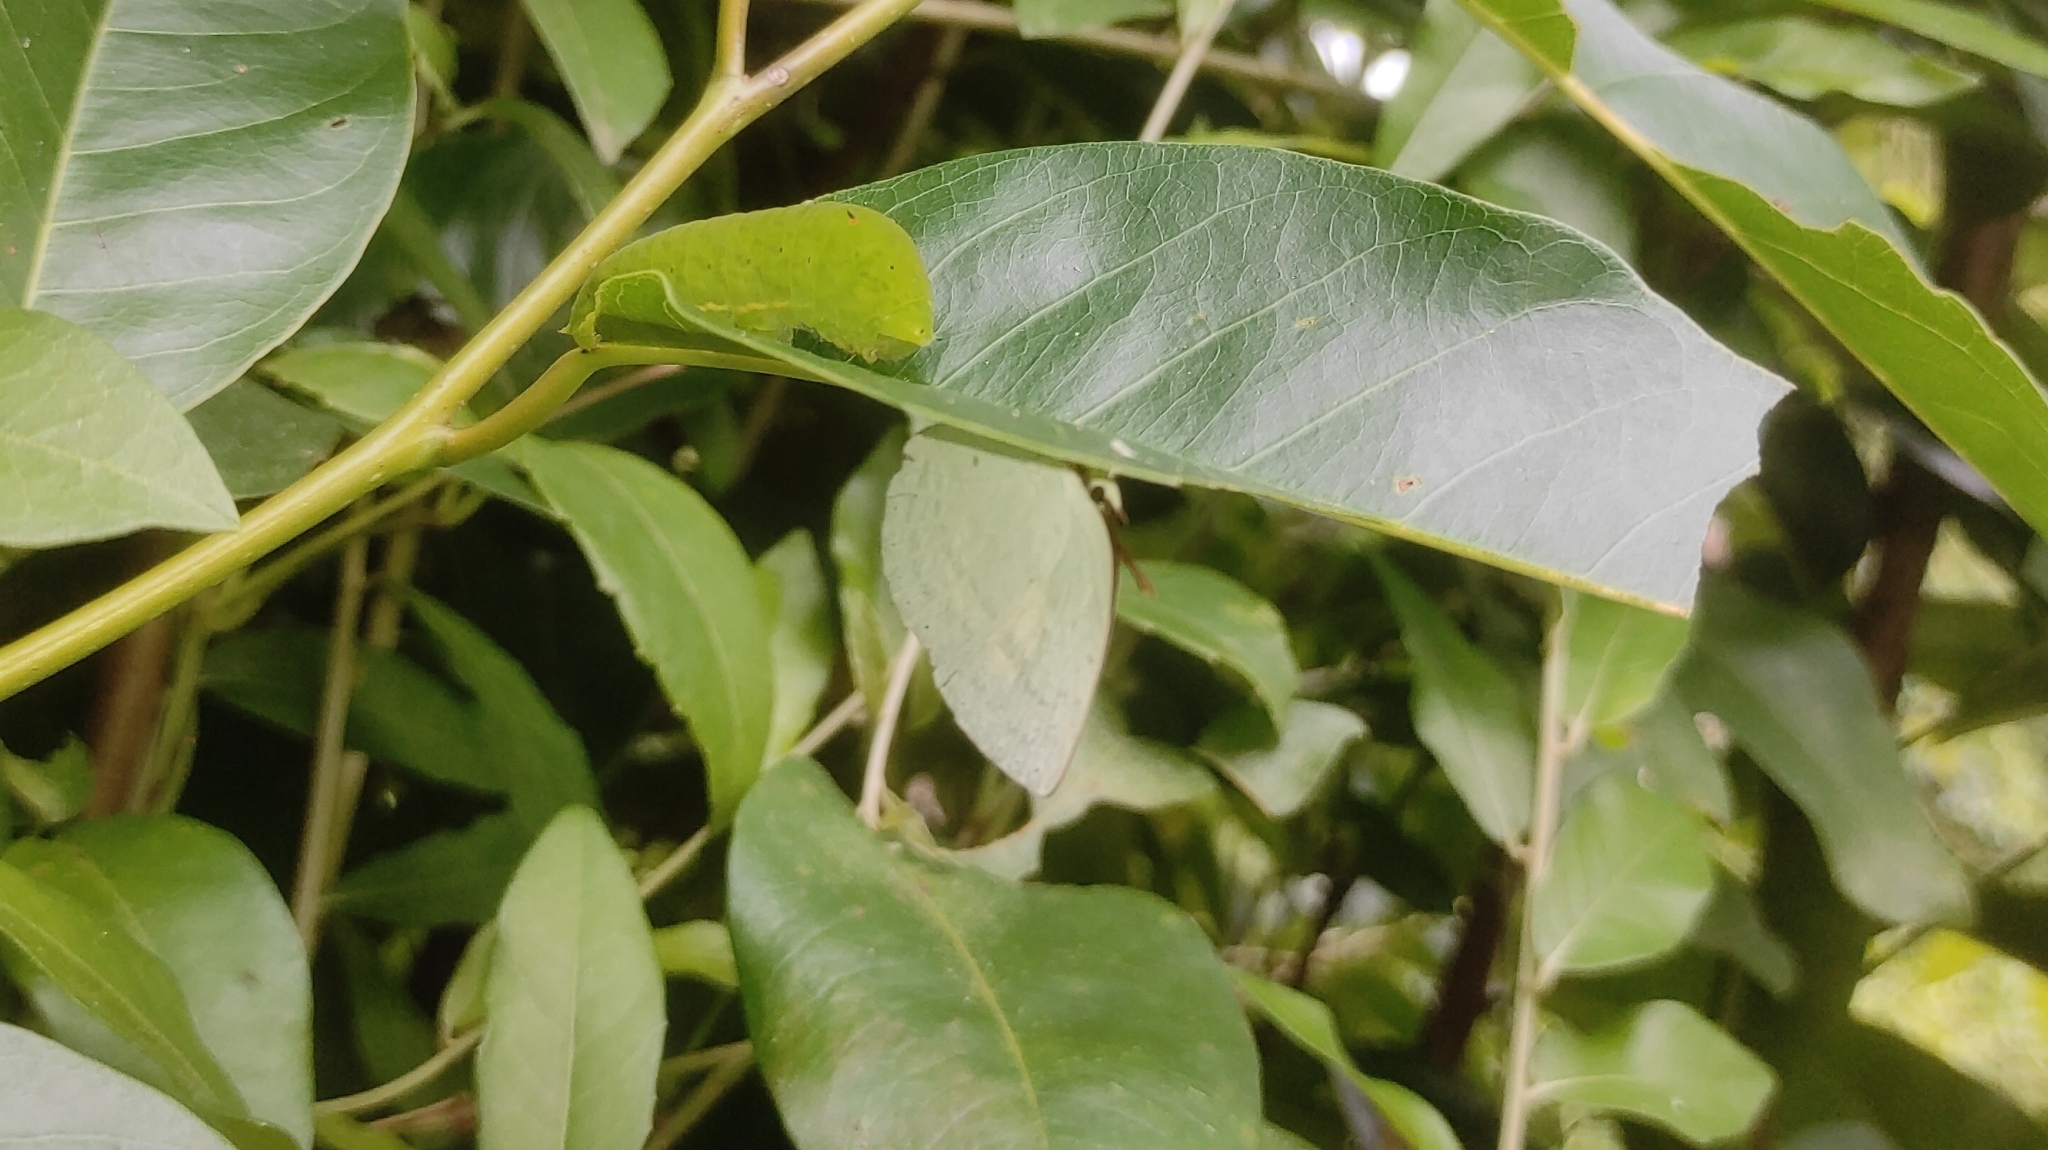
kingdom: Animalia
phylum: Arthropoda
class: Insecta
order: Lepidoptera
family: Lycaenidae
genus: Curetis
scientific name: Curetis thetis
